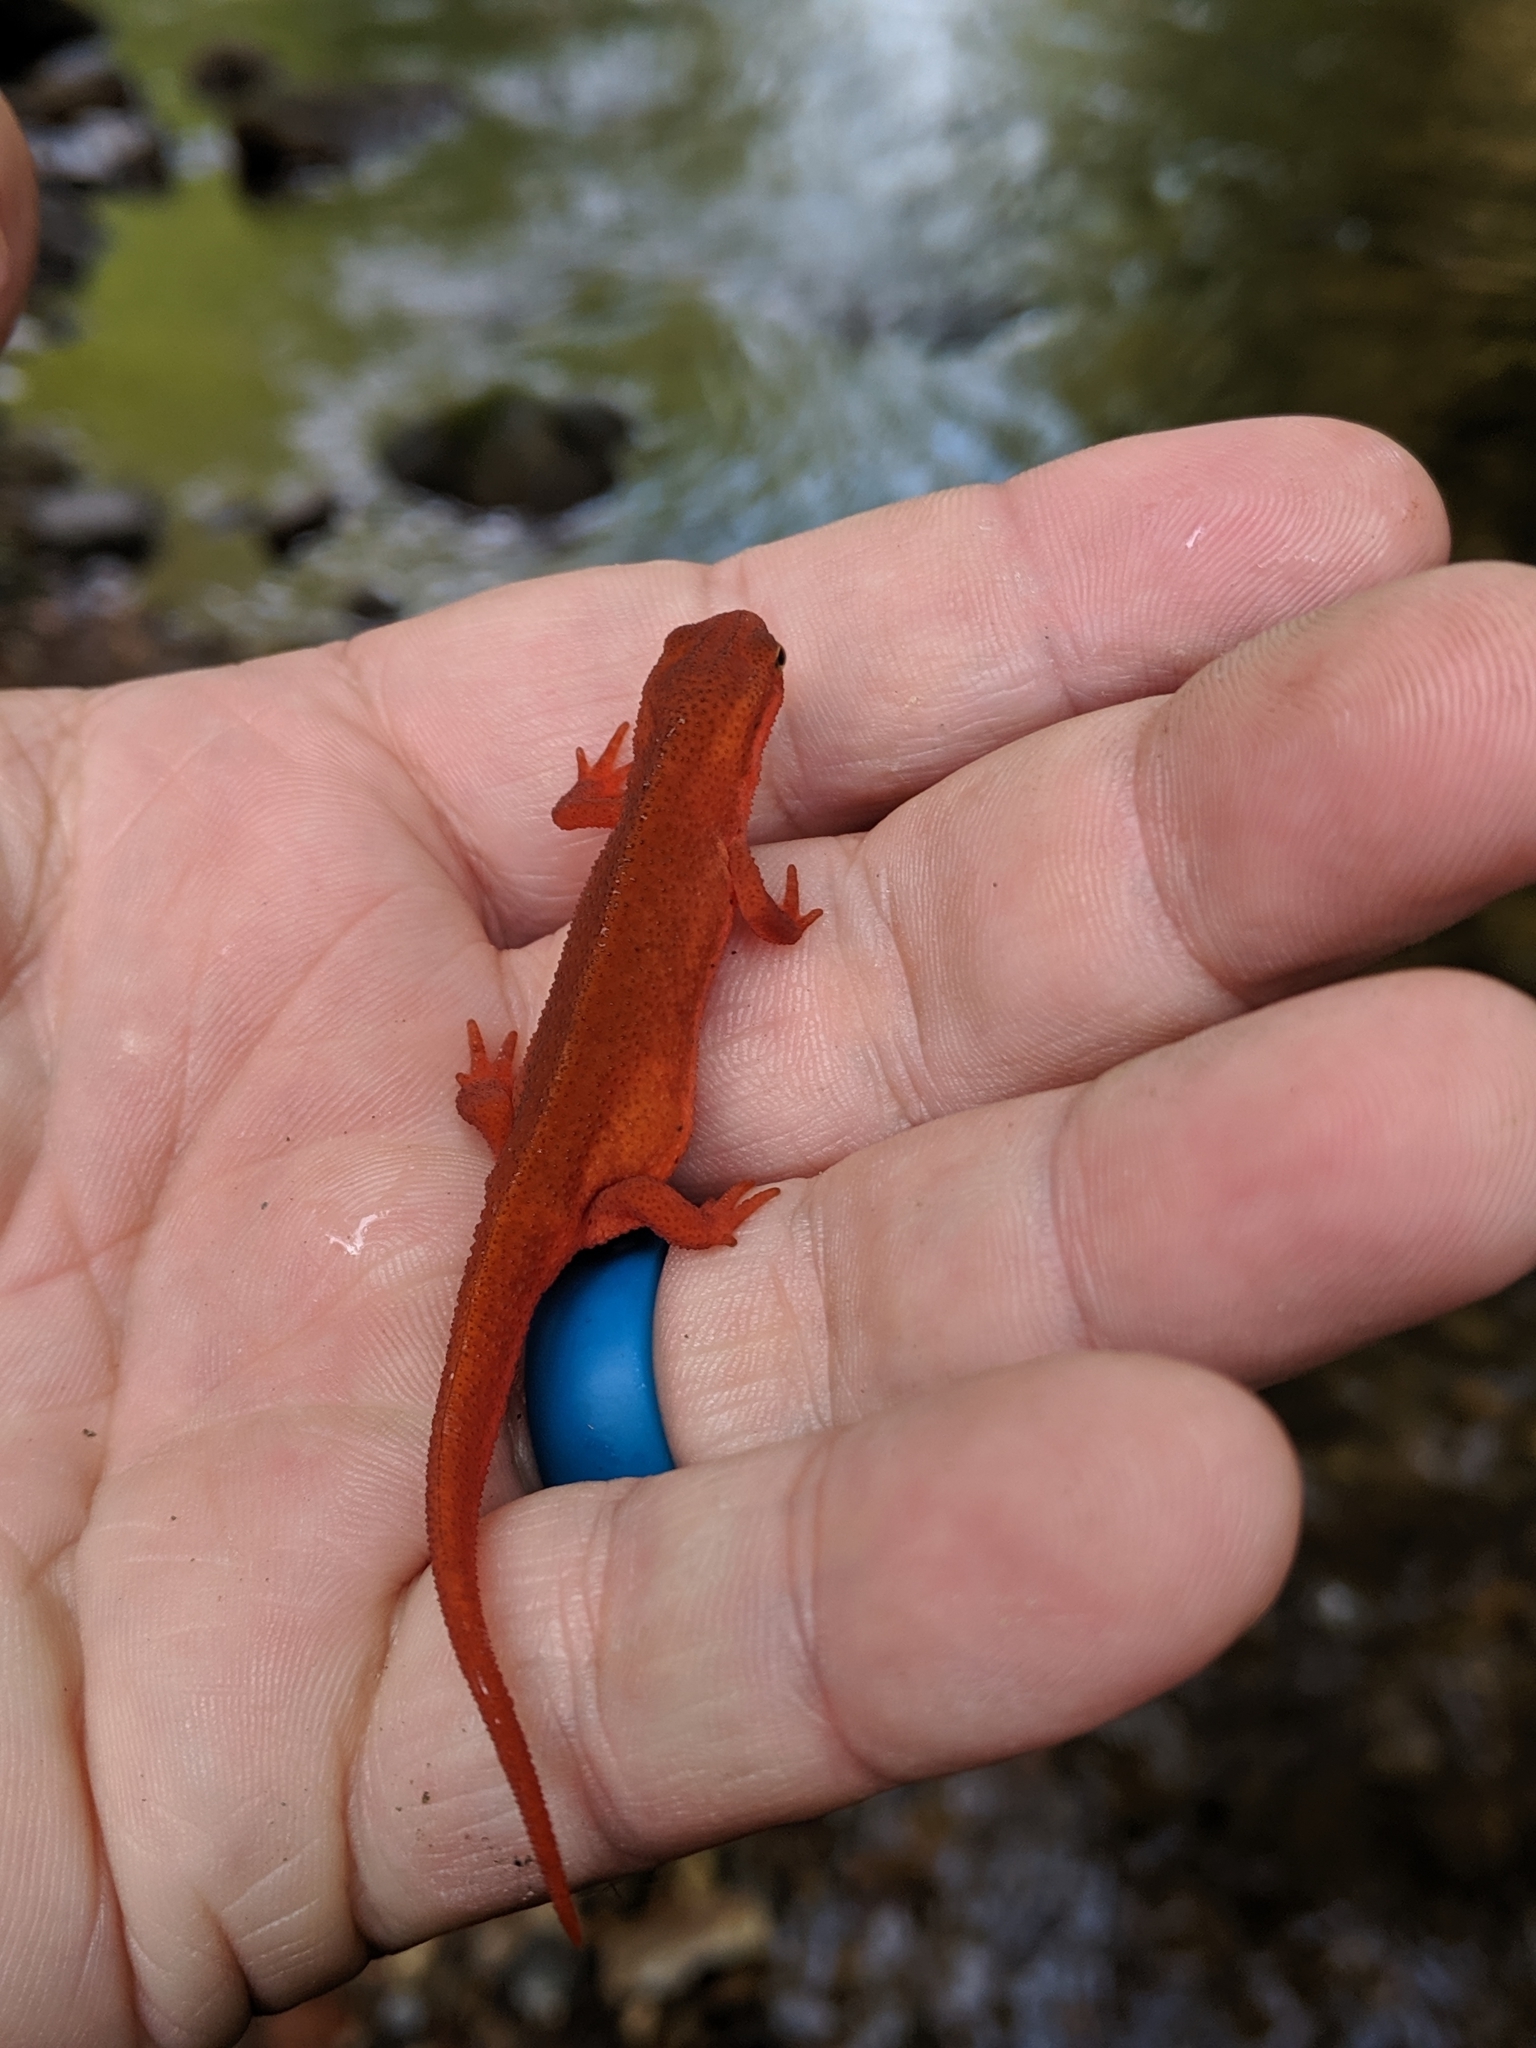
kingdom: Animalia
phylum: Chordata
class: Amphibia
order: Caudata
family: Salamandridae
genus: Notophthalmus
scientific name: Notophthalmus viridescens
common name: Eastern newt
